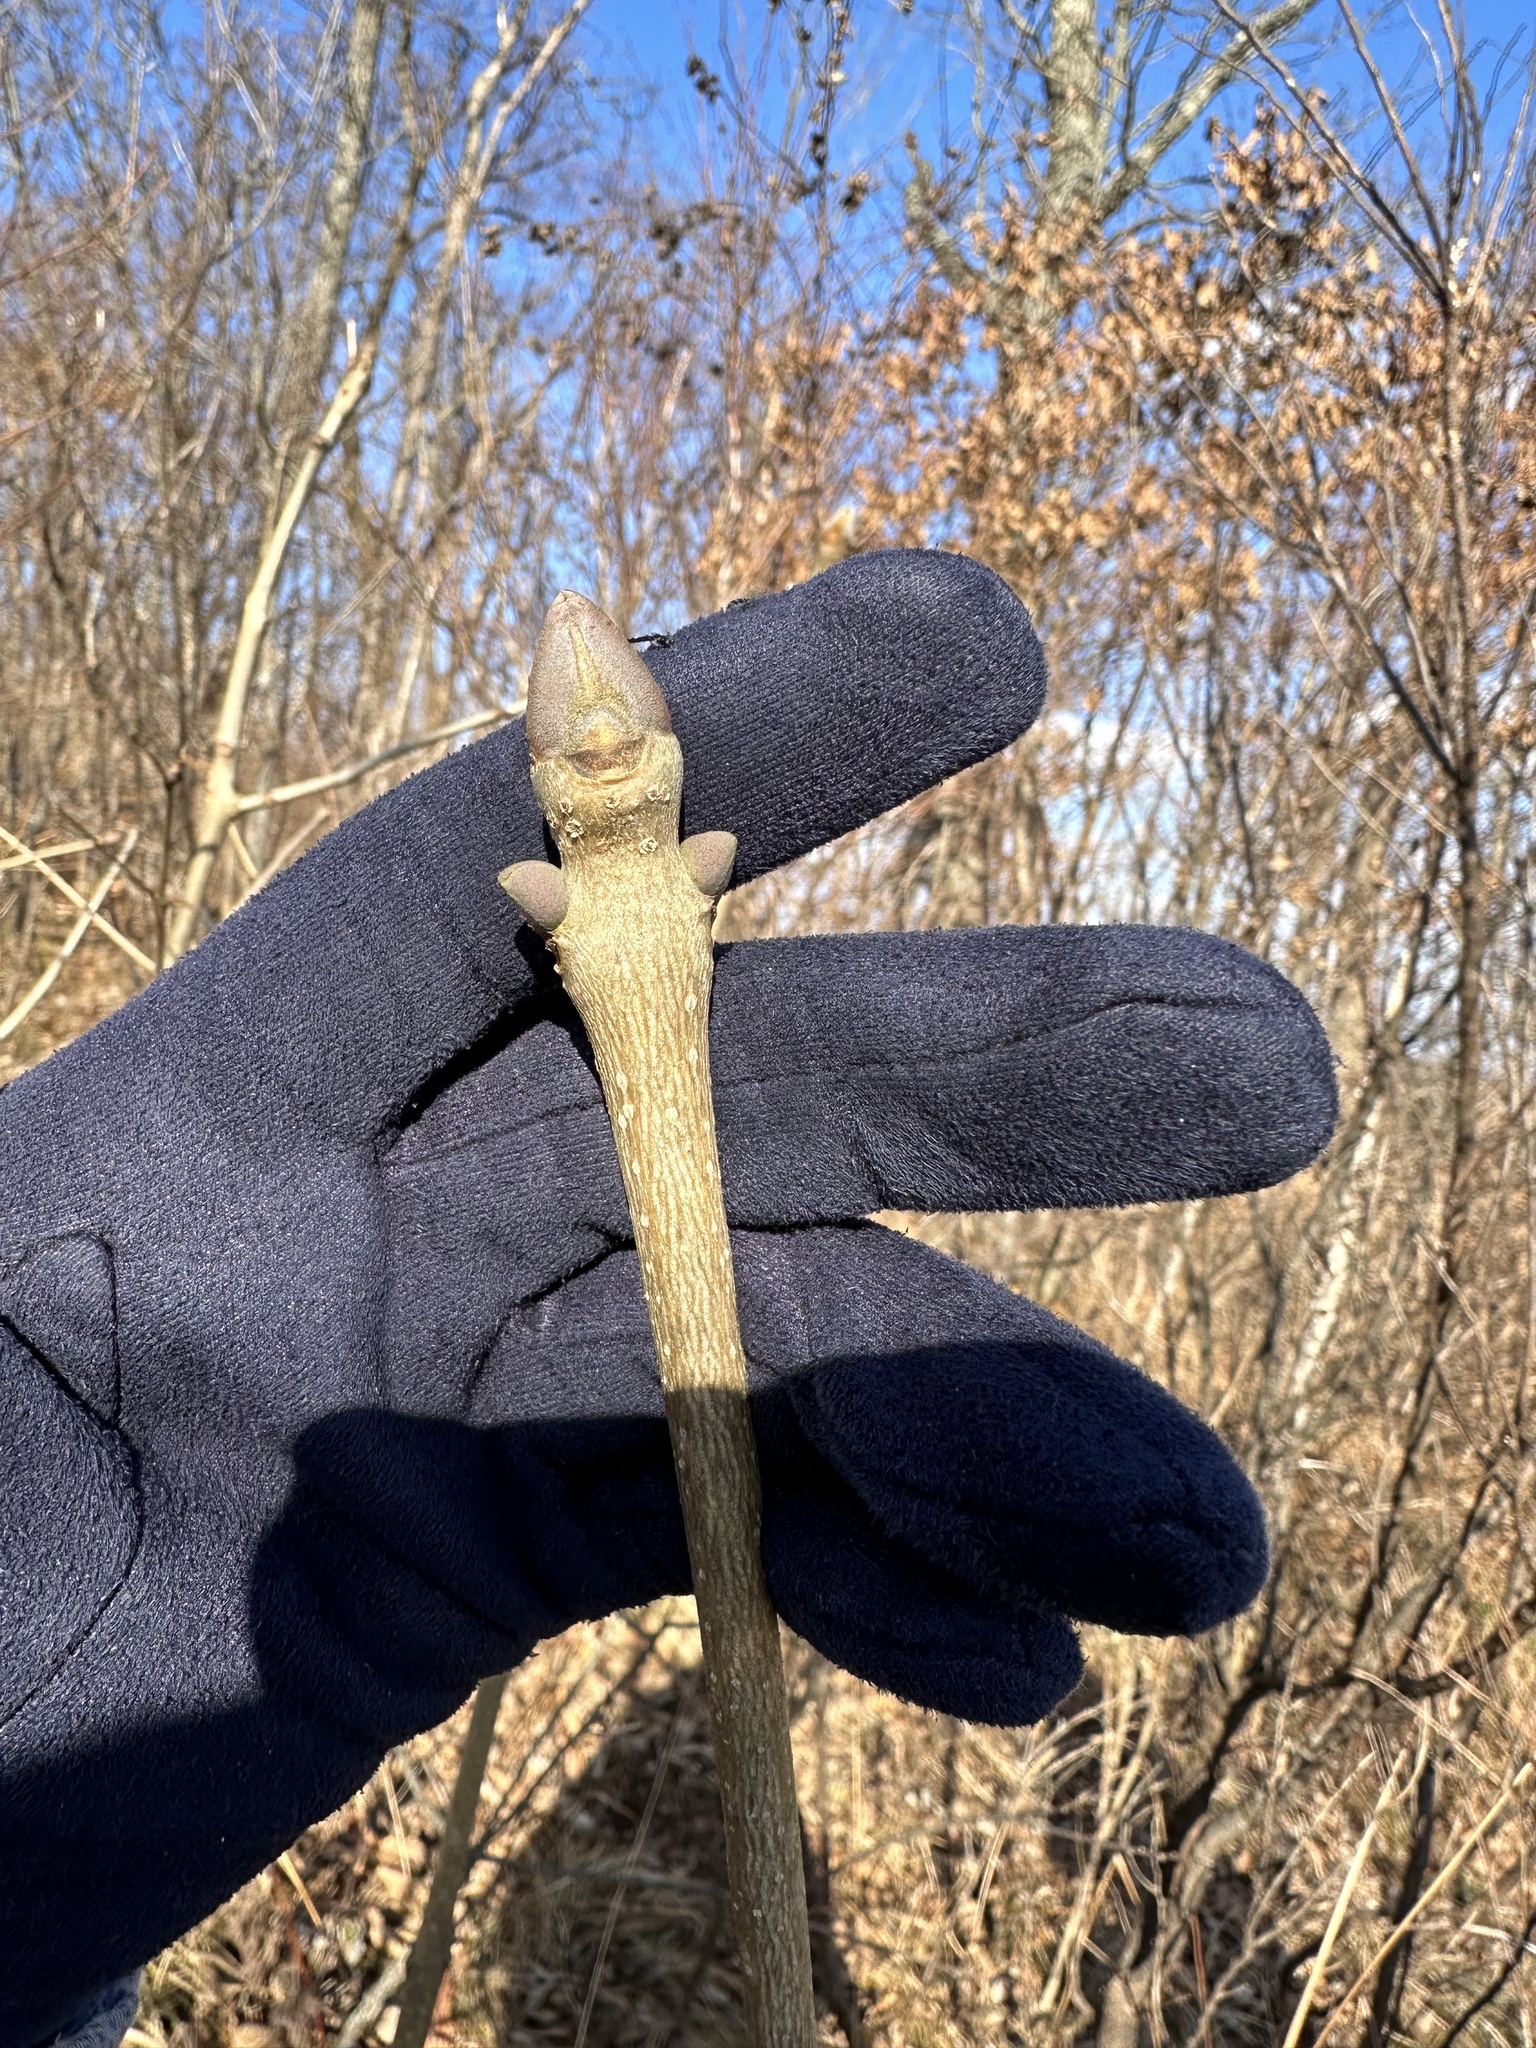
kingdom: Plantae
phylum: Tracheophyta
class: Magnoliopsida
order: Lamiales
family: Oleaceae
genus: Fraxinus
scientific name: Fraxinus chinensis
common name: Chinese ash
